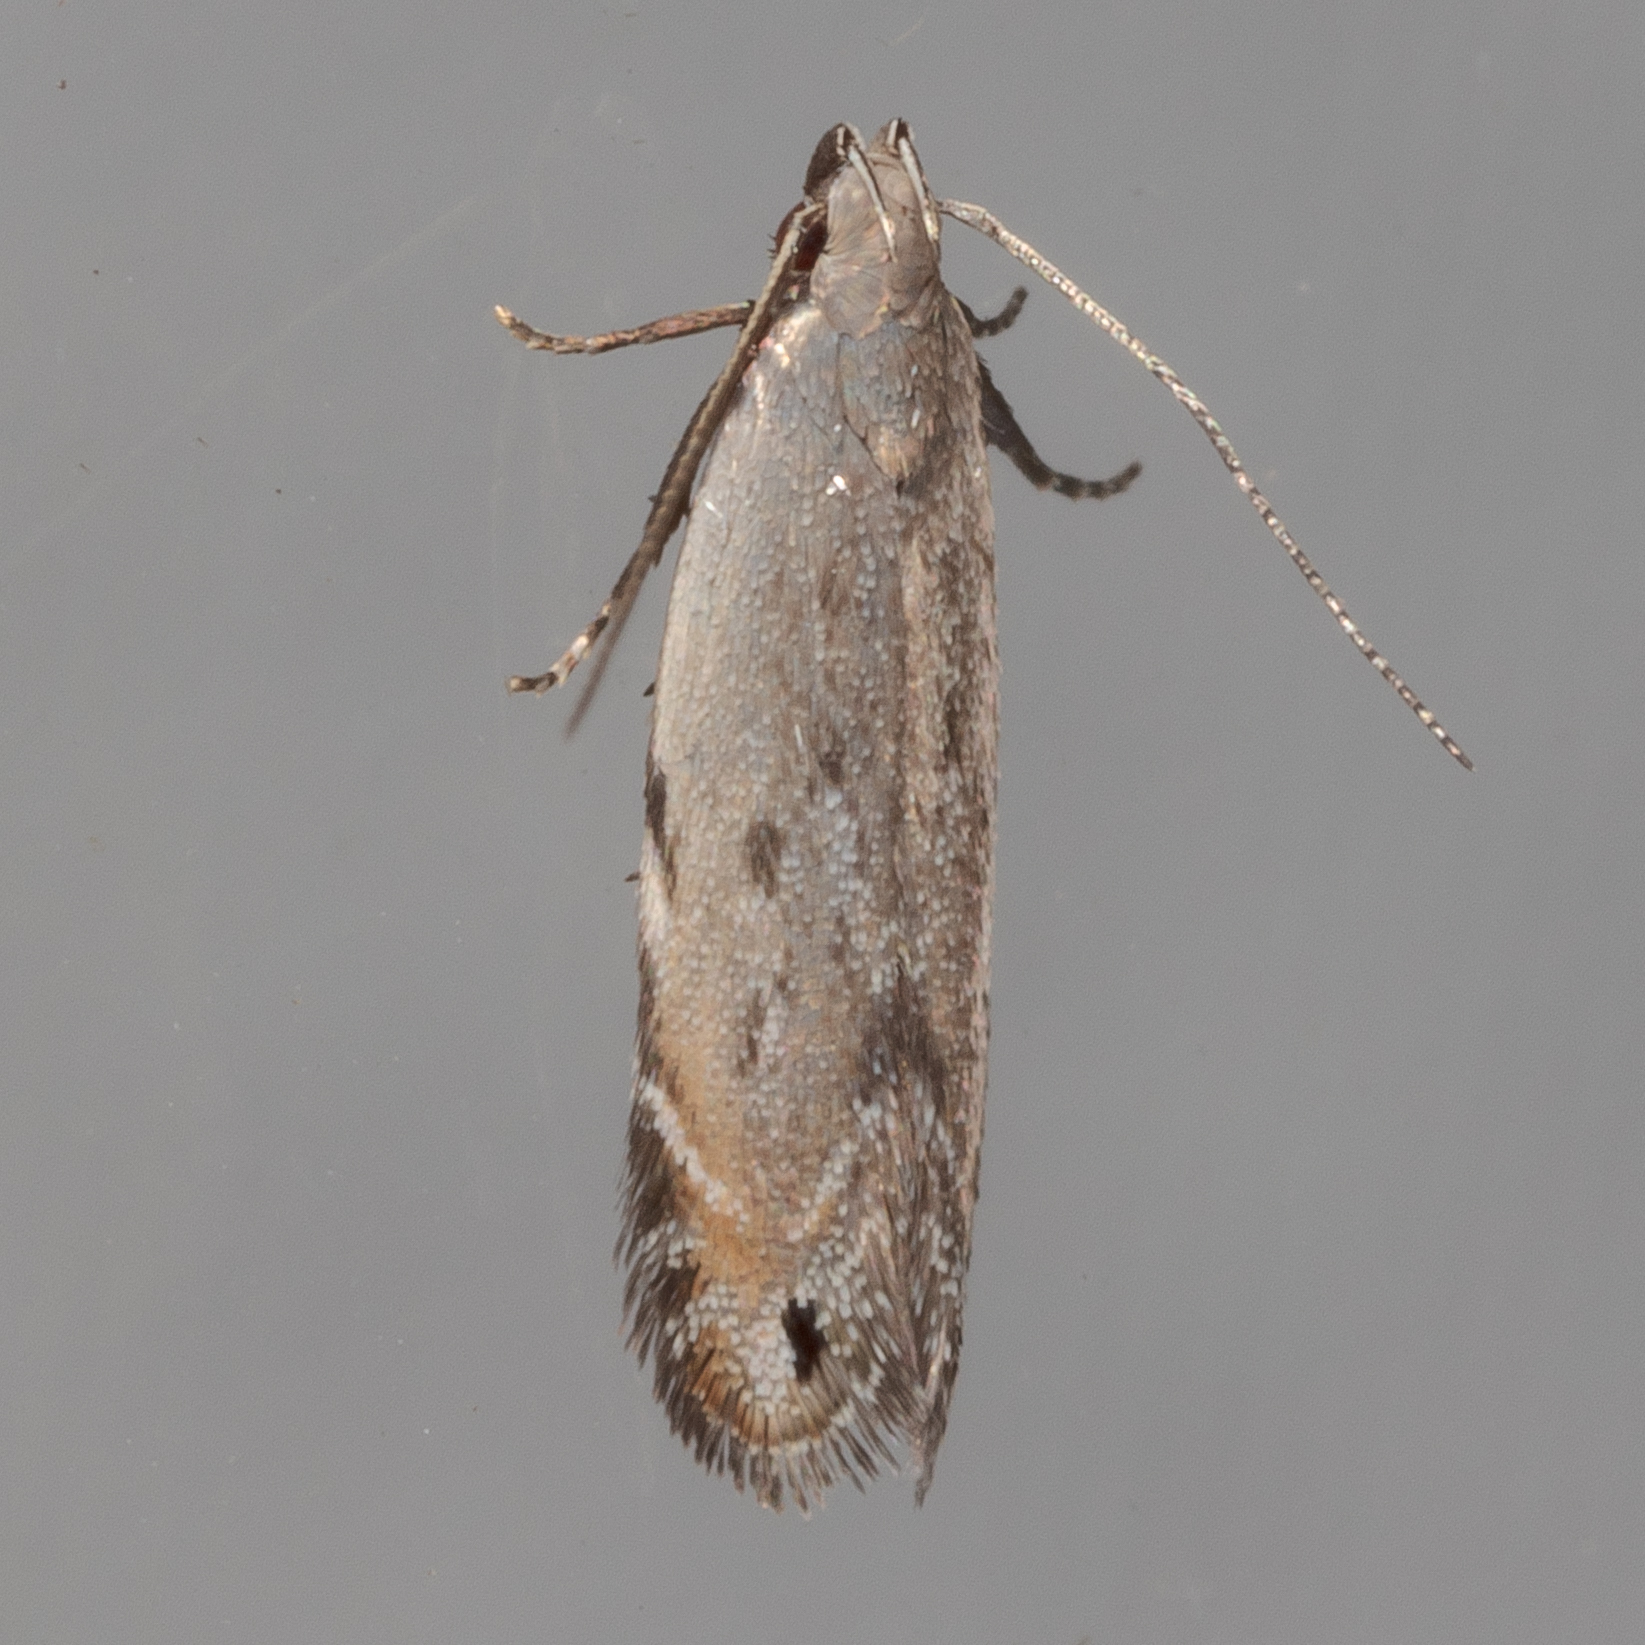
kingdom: Animalia
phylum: Arthropoda
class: Insecta
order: Lepidoptera
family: Gelechiidae
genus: Battaristis
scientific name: Battaristis concinnusella
